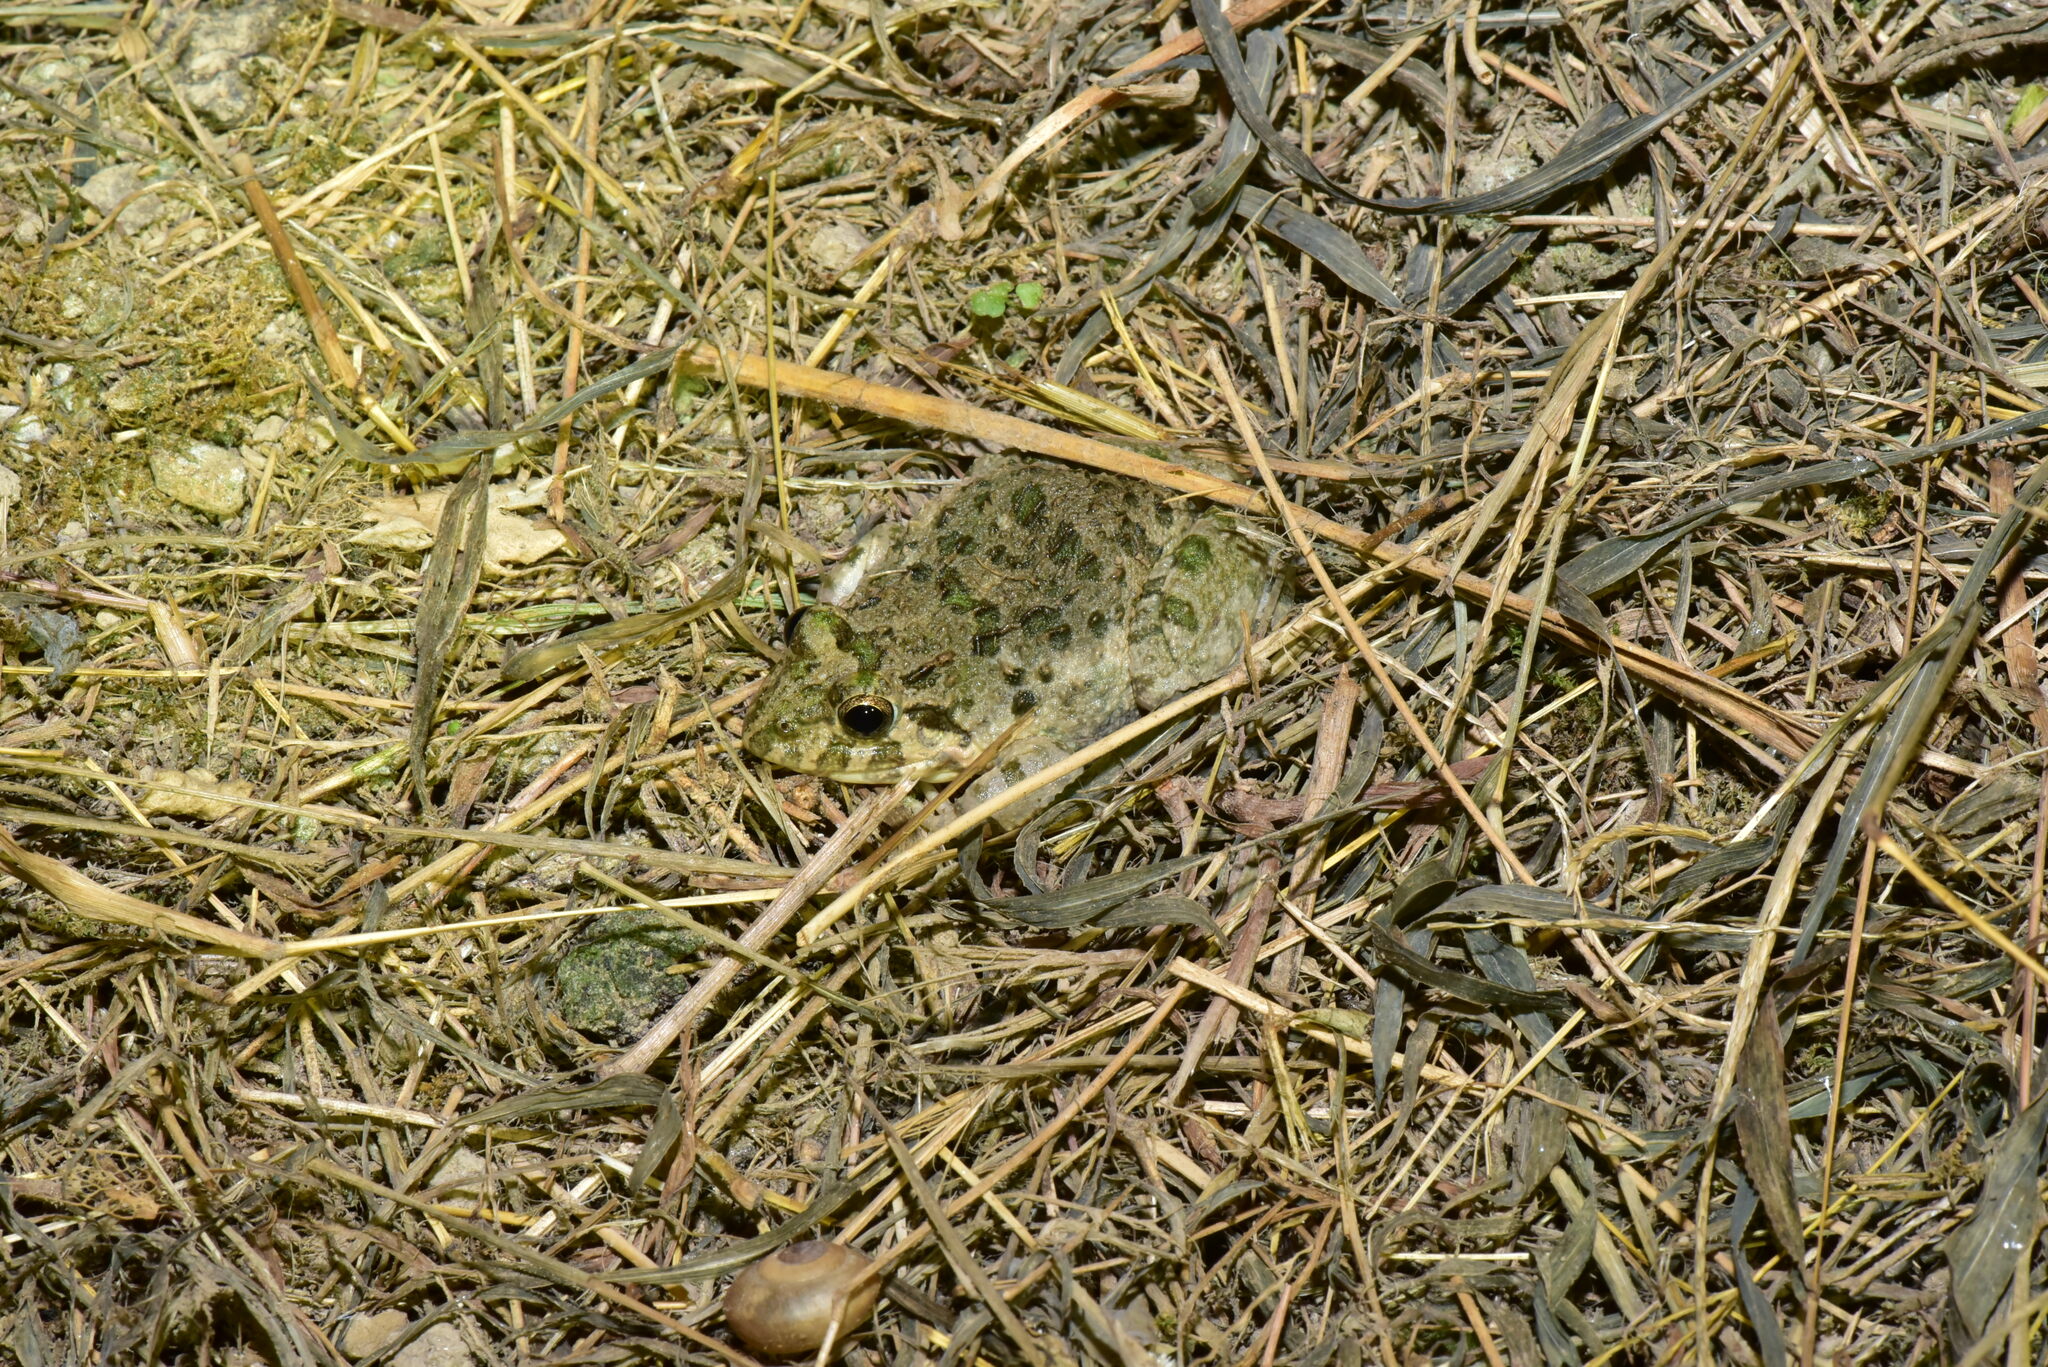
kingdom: Animalia
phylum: Chordata
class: Amphibia
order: Anura
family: Dicroglossidae
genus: Fejervarya
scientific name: Fejervarya limnocharis
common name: Asian grass frog/common pond frog/field frog/grass frog/indian rice frog
